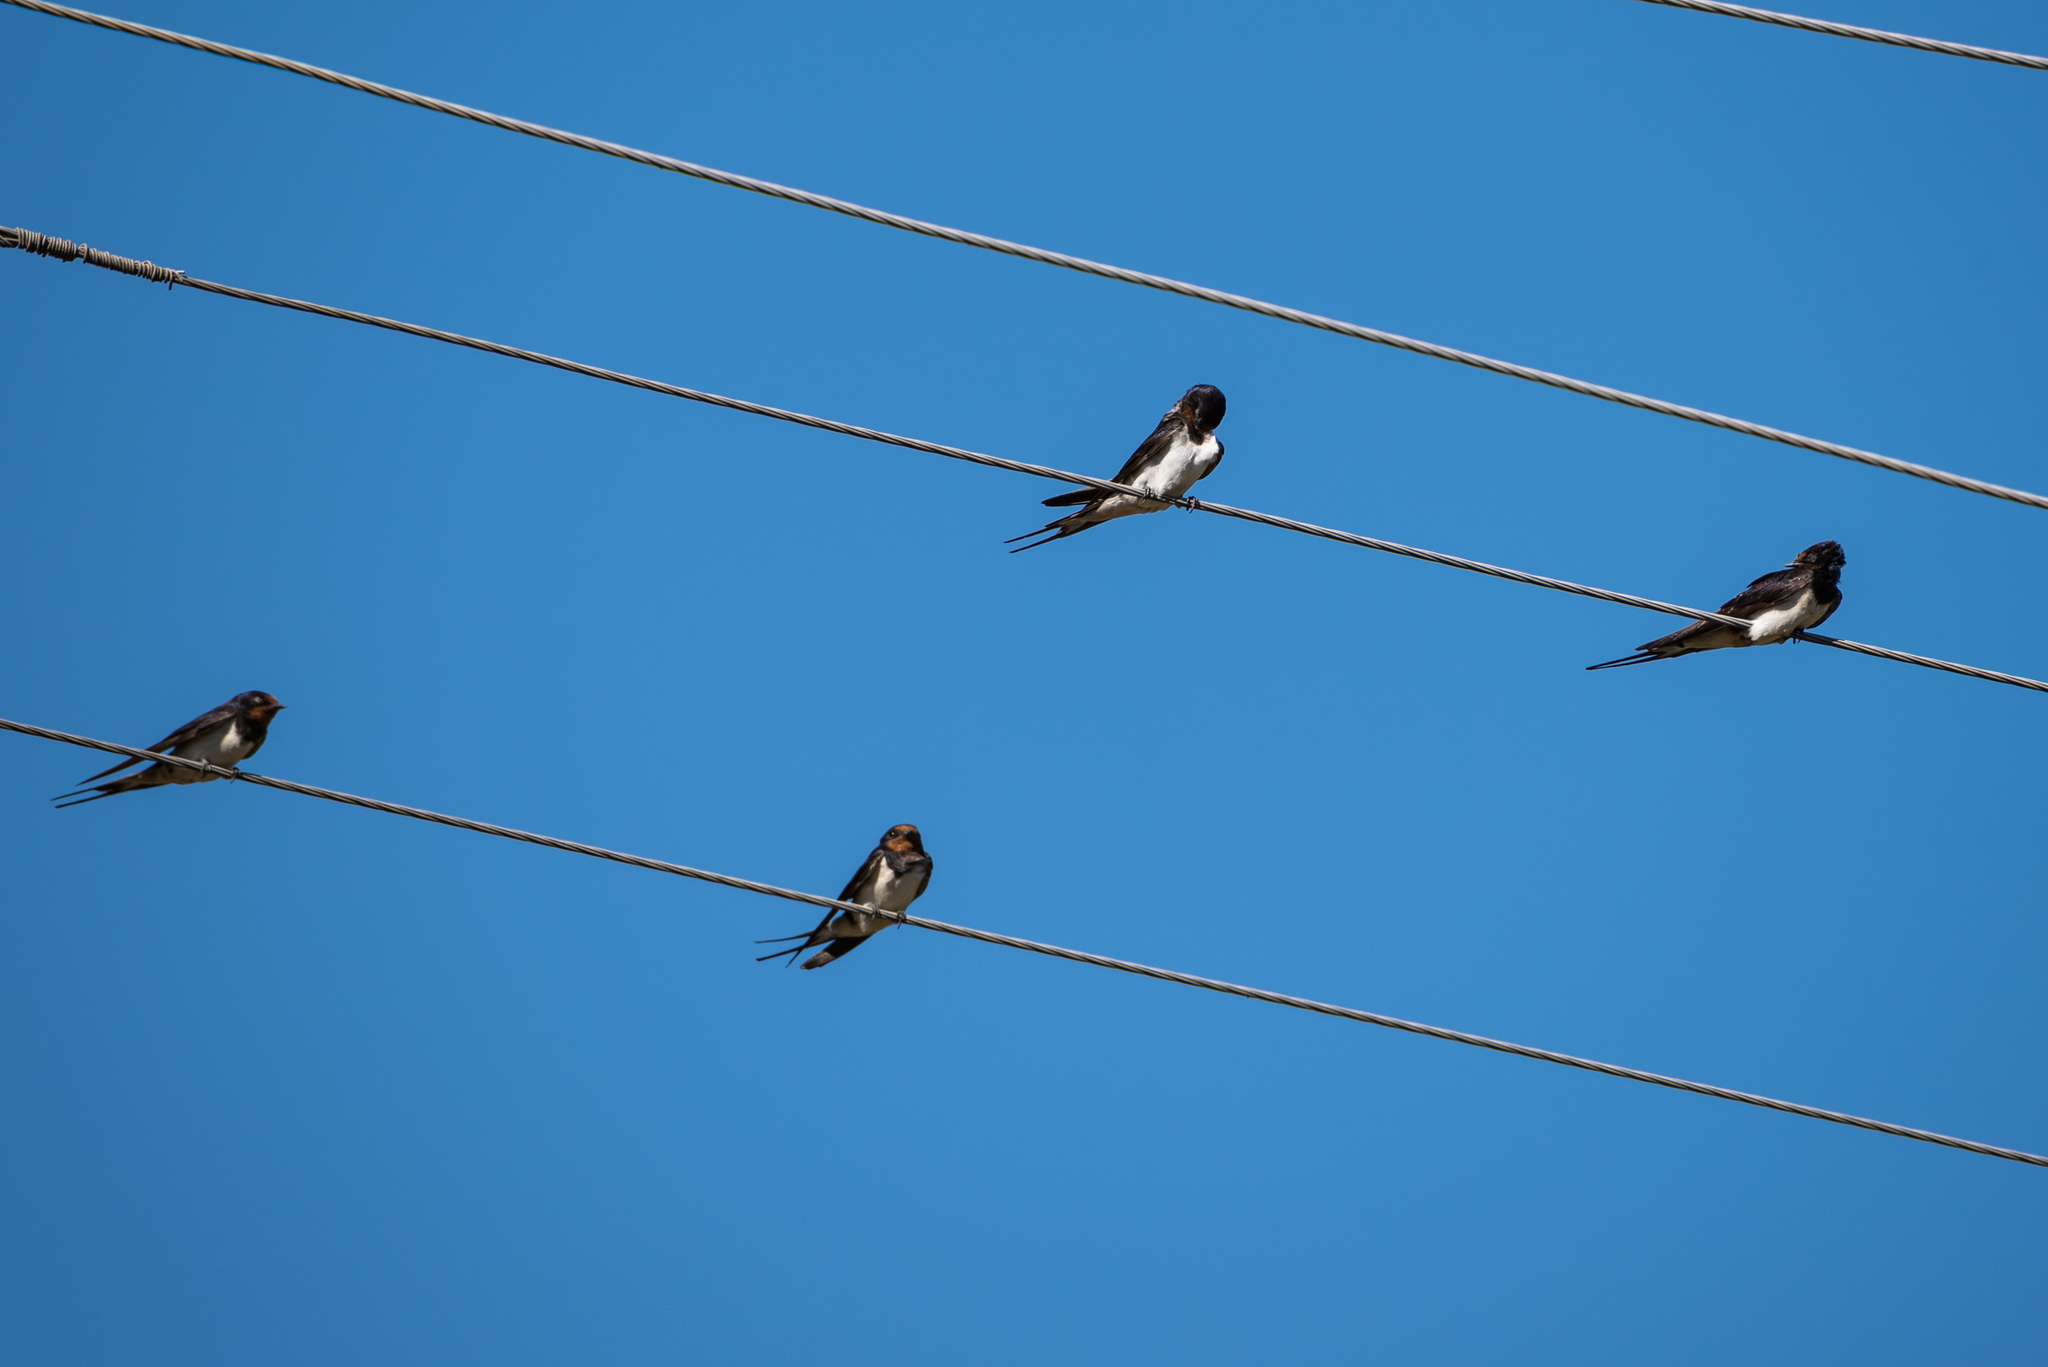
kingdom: Animalia
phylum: Chordata
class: Aves
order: Passeriformes
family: Hirundinidae
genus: Hirundo
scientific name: Hirundo rustica
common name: Barn swallow
